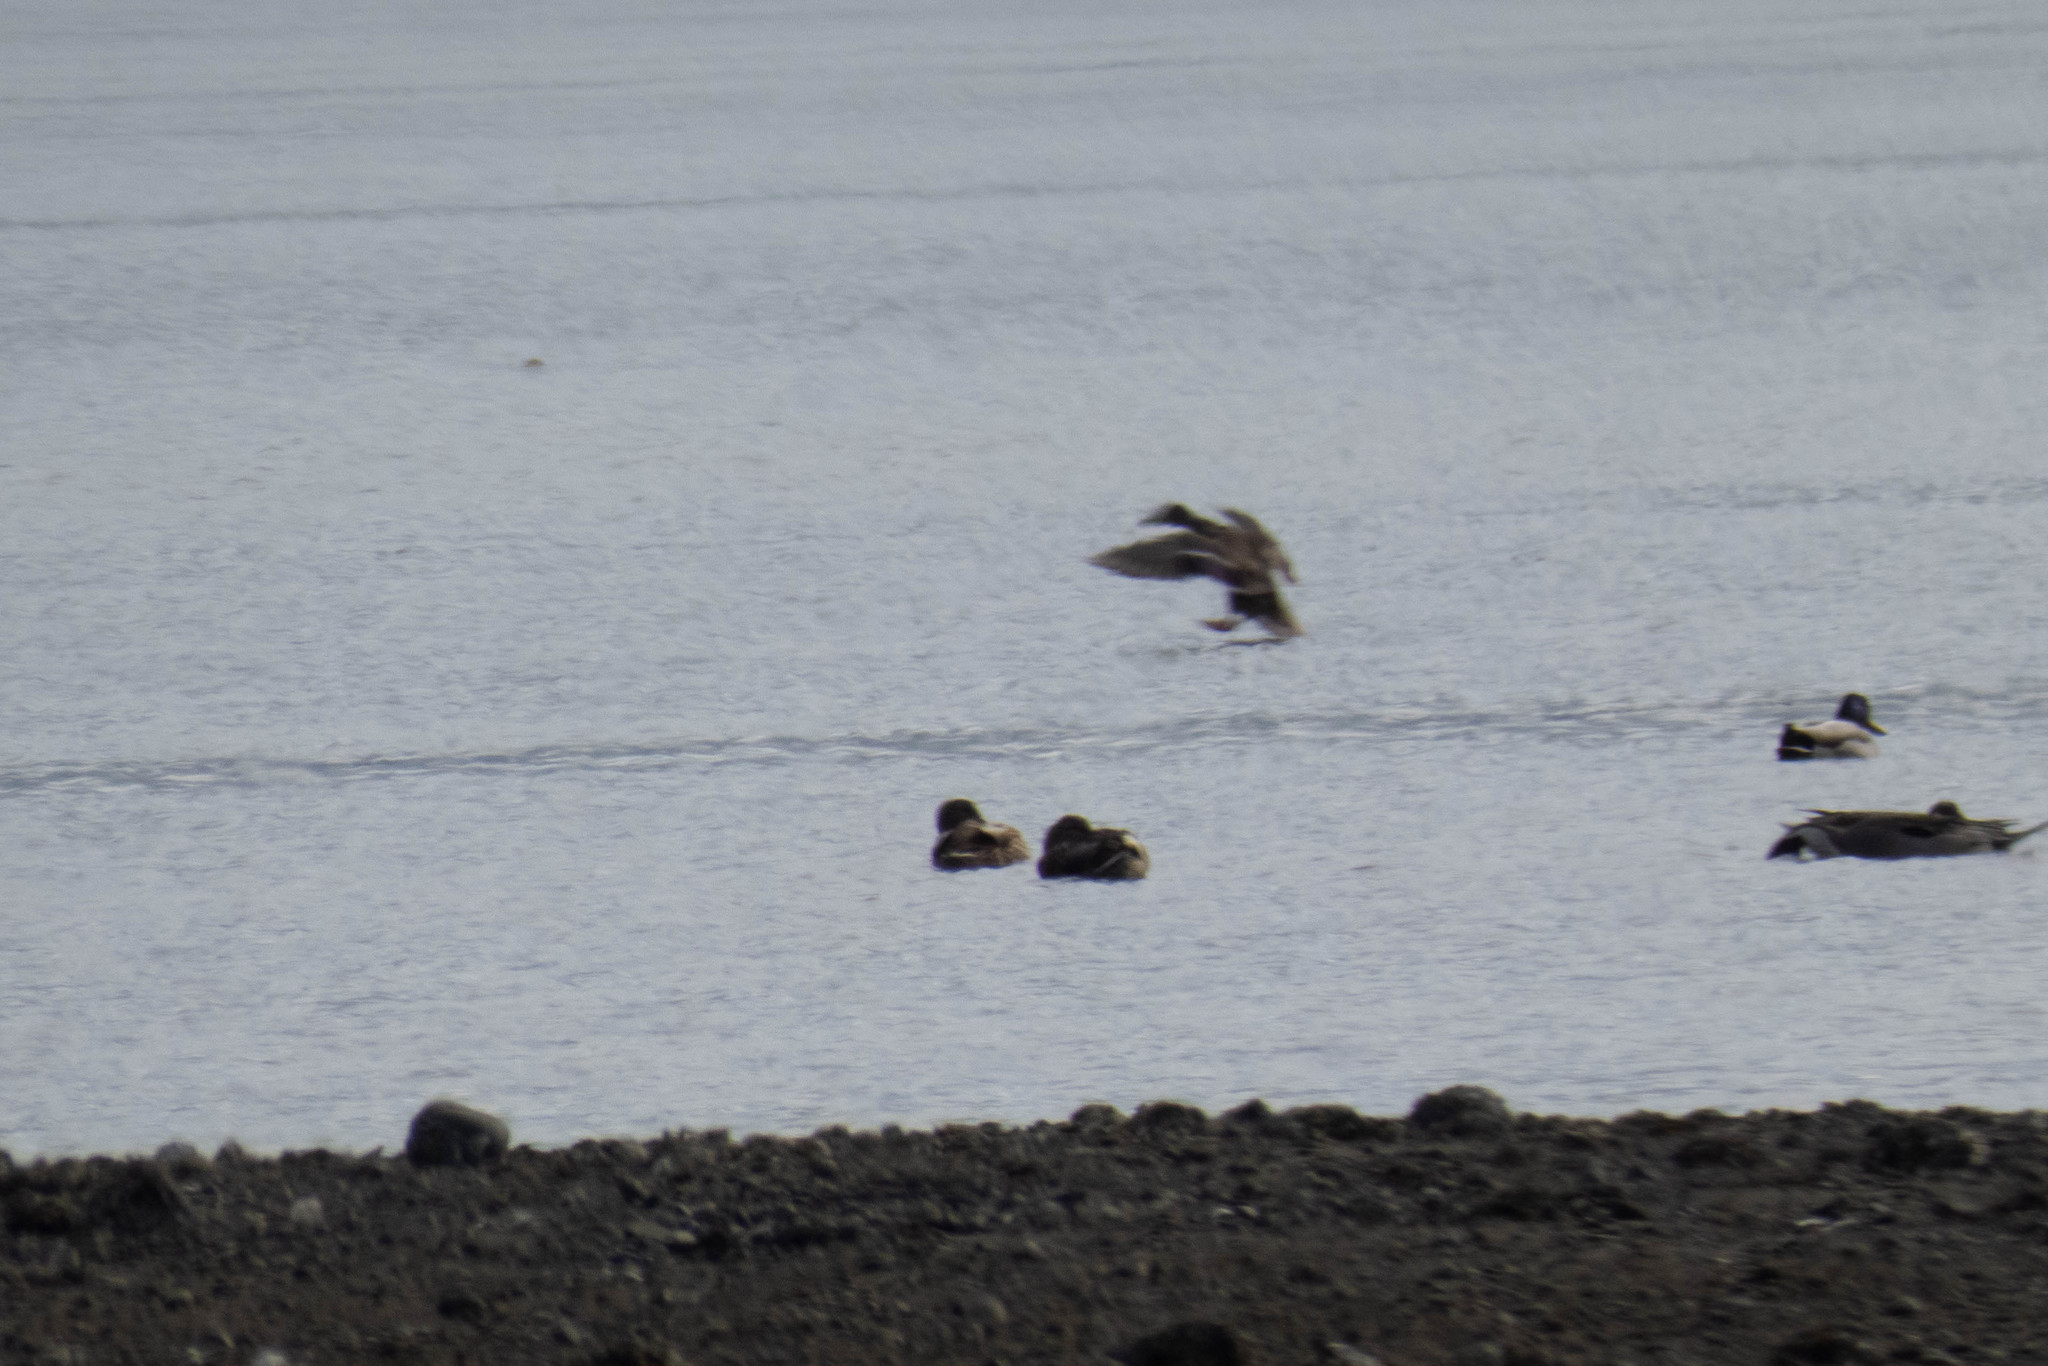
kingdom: Animalia
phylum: Chordata
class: Aves
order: Anseriformes
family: Anatidae
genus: Anas
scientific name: Anas platyrhynchos
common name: Mallard
